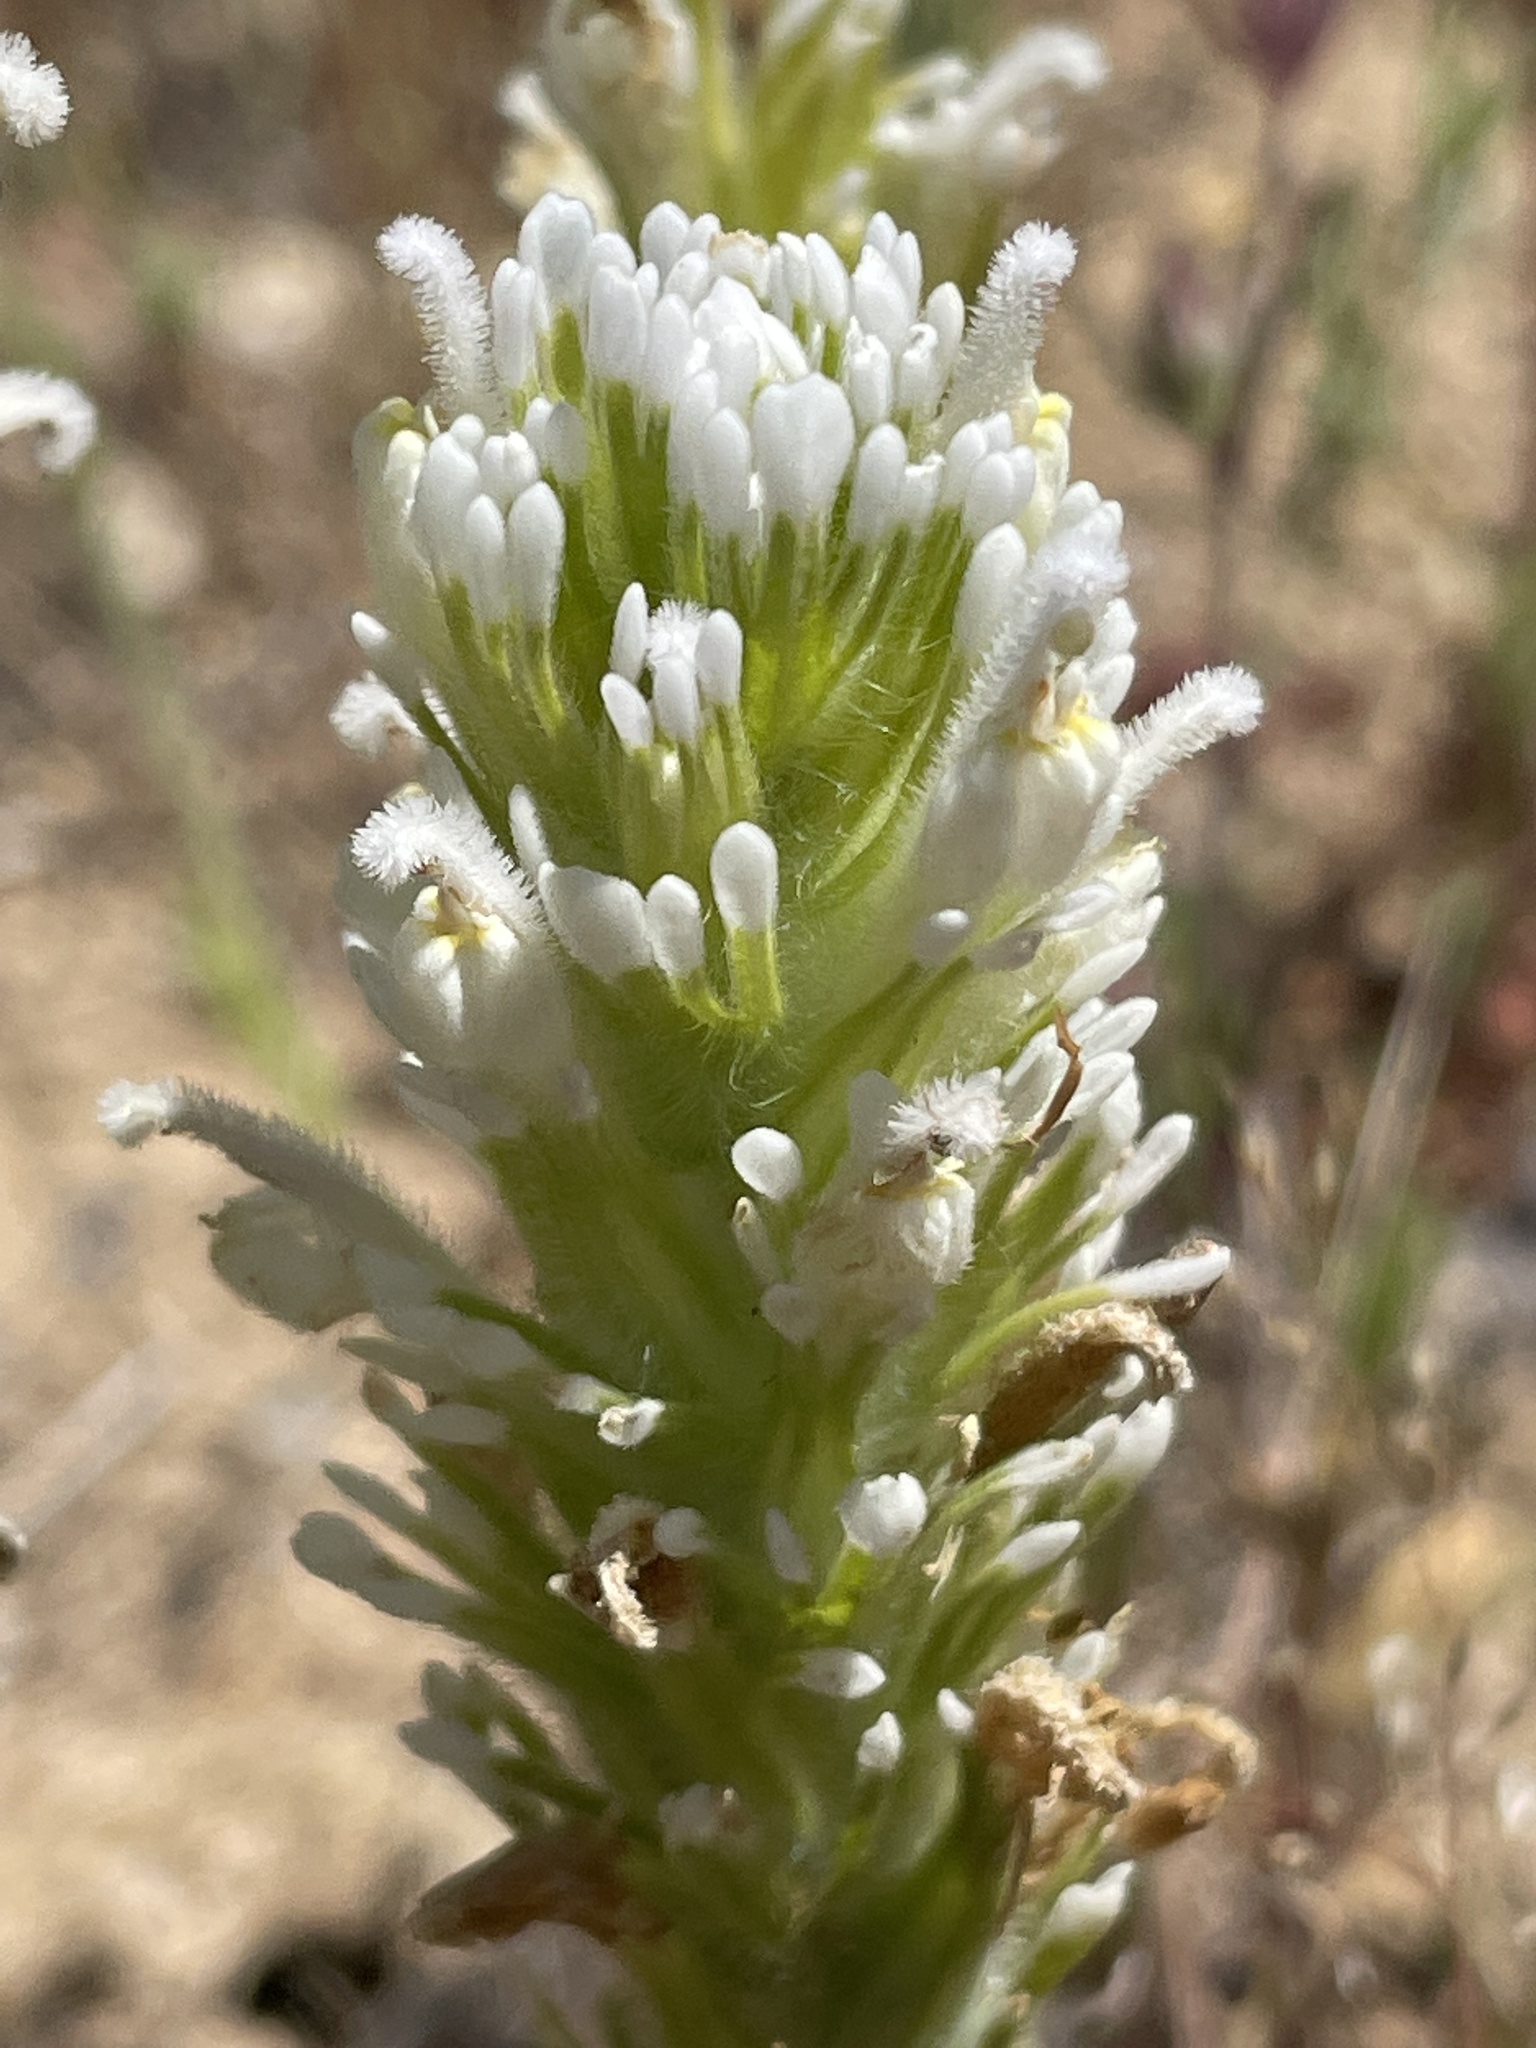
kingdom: Plantae
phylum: Tracheophyta
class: Magnoliopsida
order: Lamiales
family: Orobanchaceae
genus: Castilleja
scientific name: Castilleja exserta
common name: Purple owl-clover
